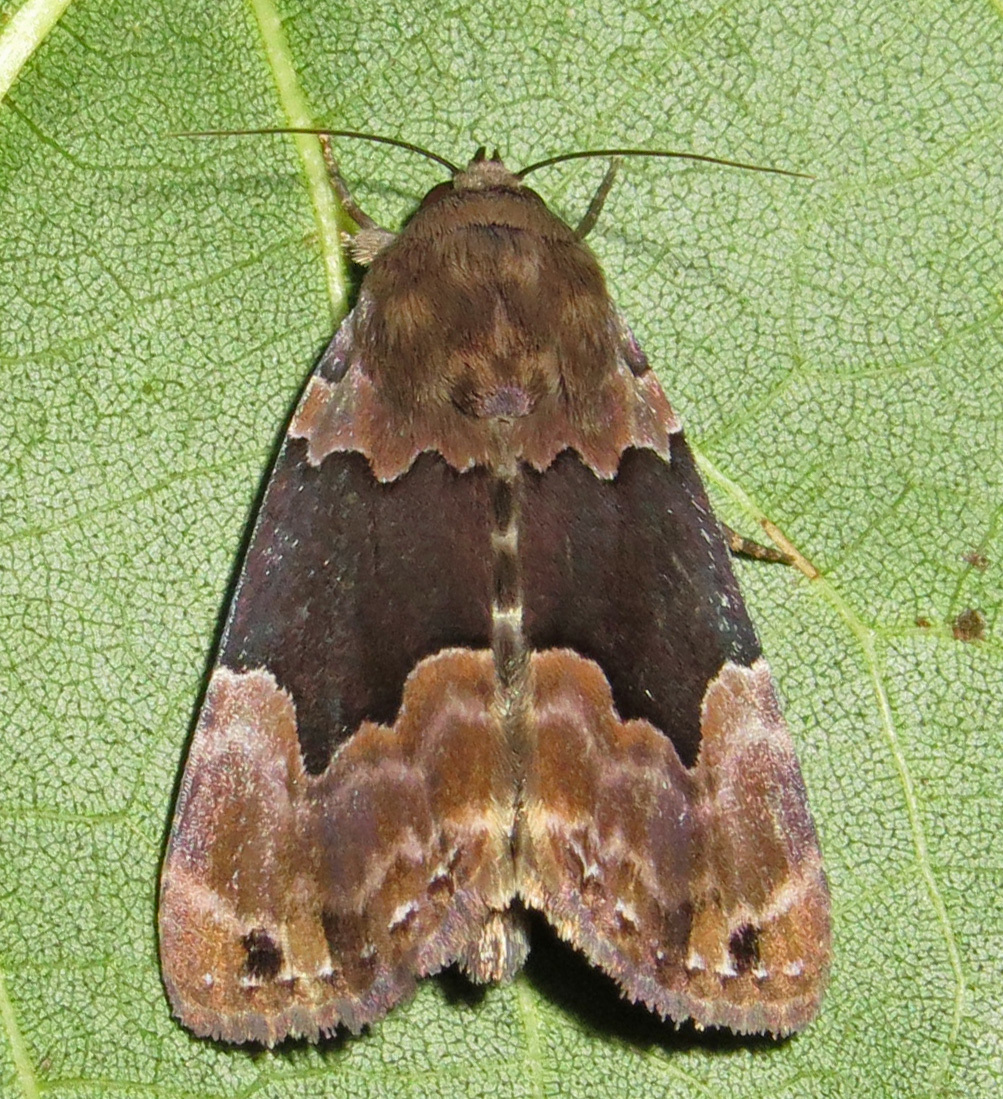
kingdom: Animalia
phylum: Arthropoda
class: Insecta
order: Lepidoptera
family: Erebidae
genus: Dinumma
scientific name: Dinumma deponens
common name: Purplish moth
